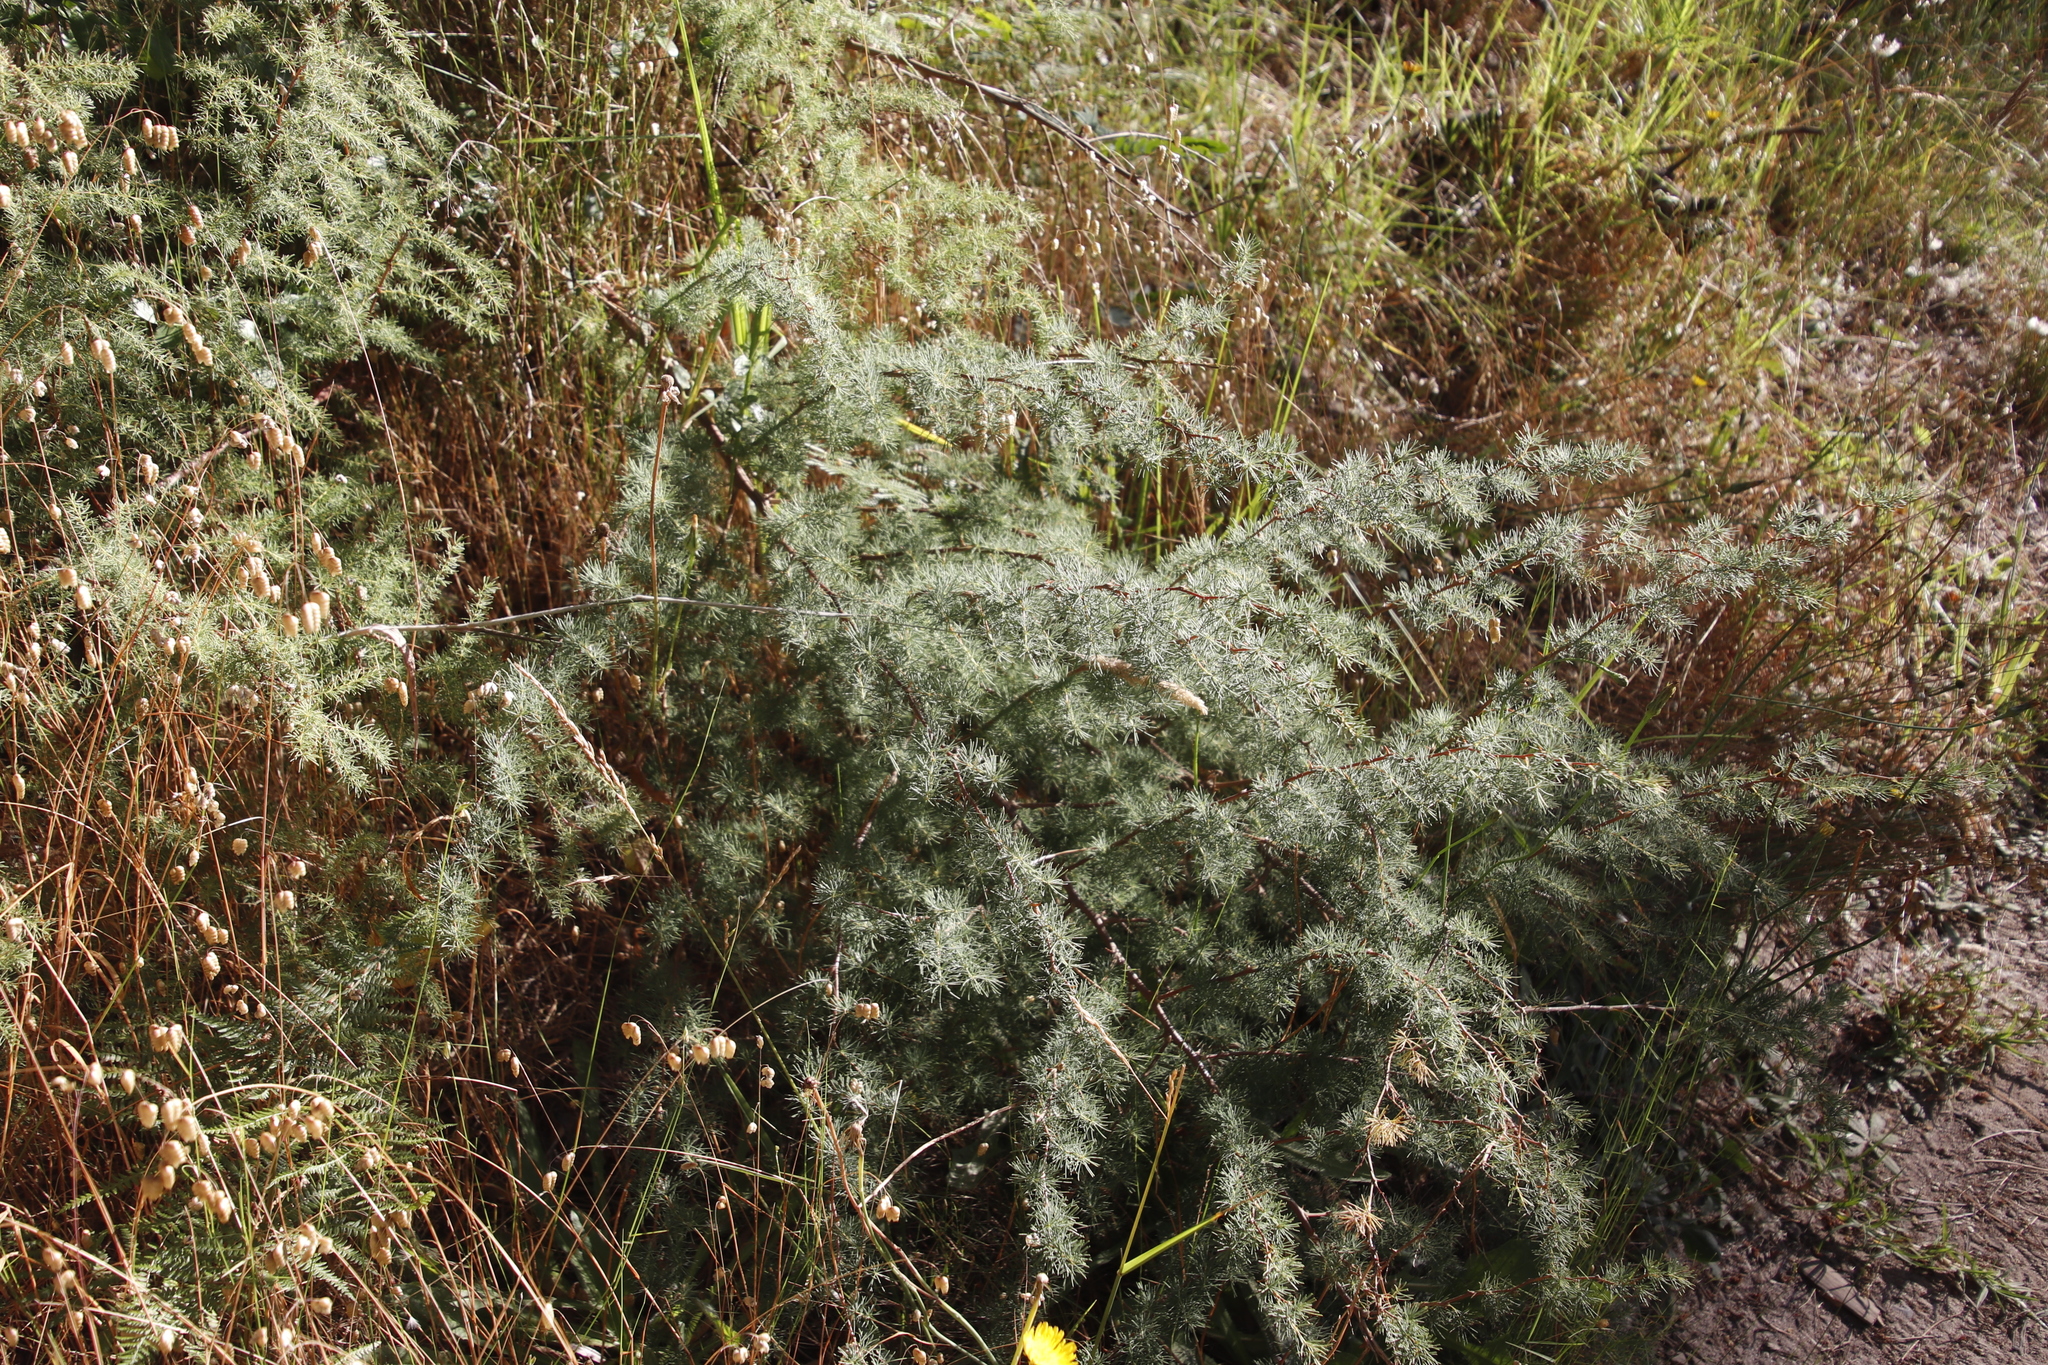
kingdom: Plantae
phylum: Tracheophyta
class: Liliopsida
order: Asparagales
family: Asparagaceae
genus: Asparagus
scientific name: Asparagus rubicundus
